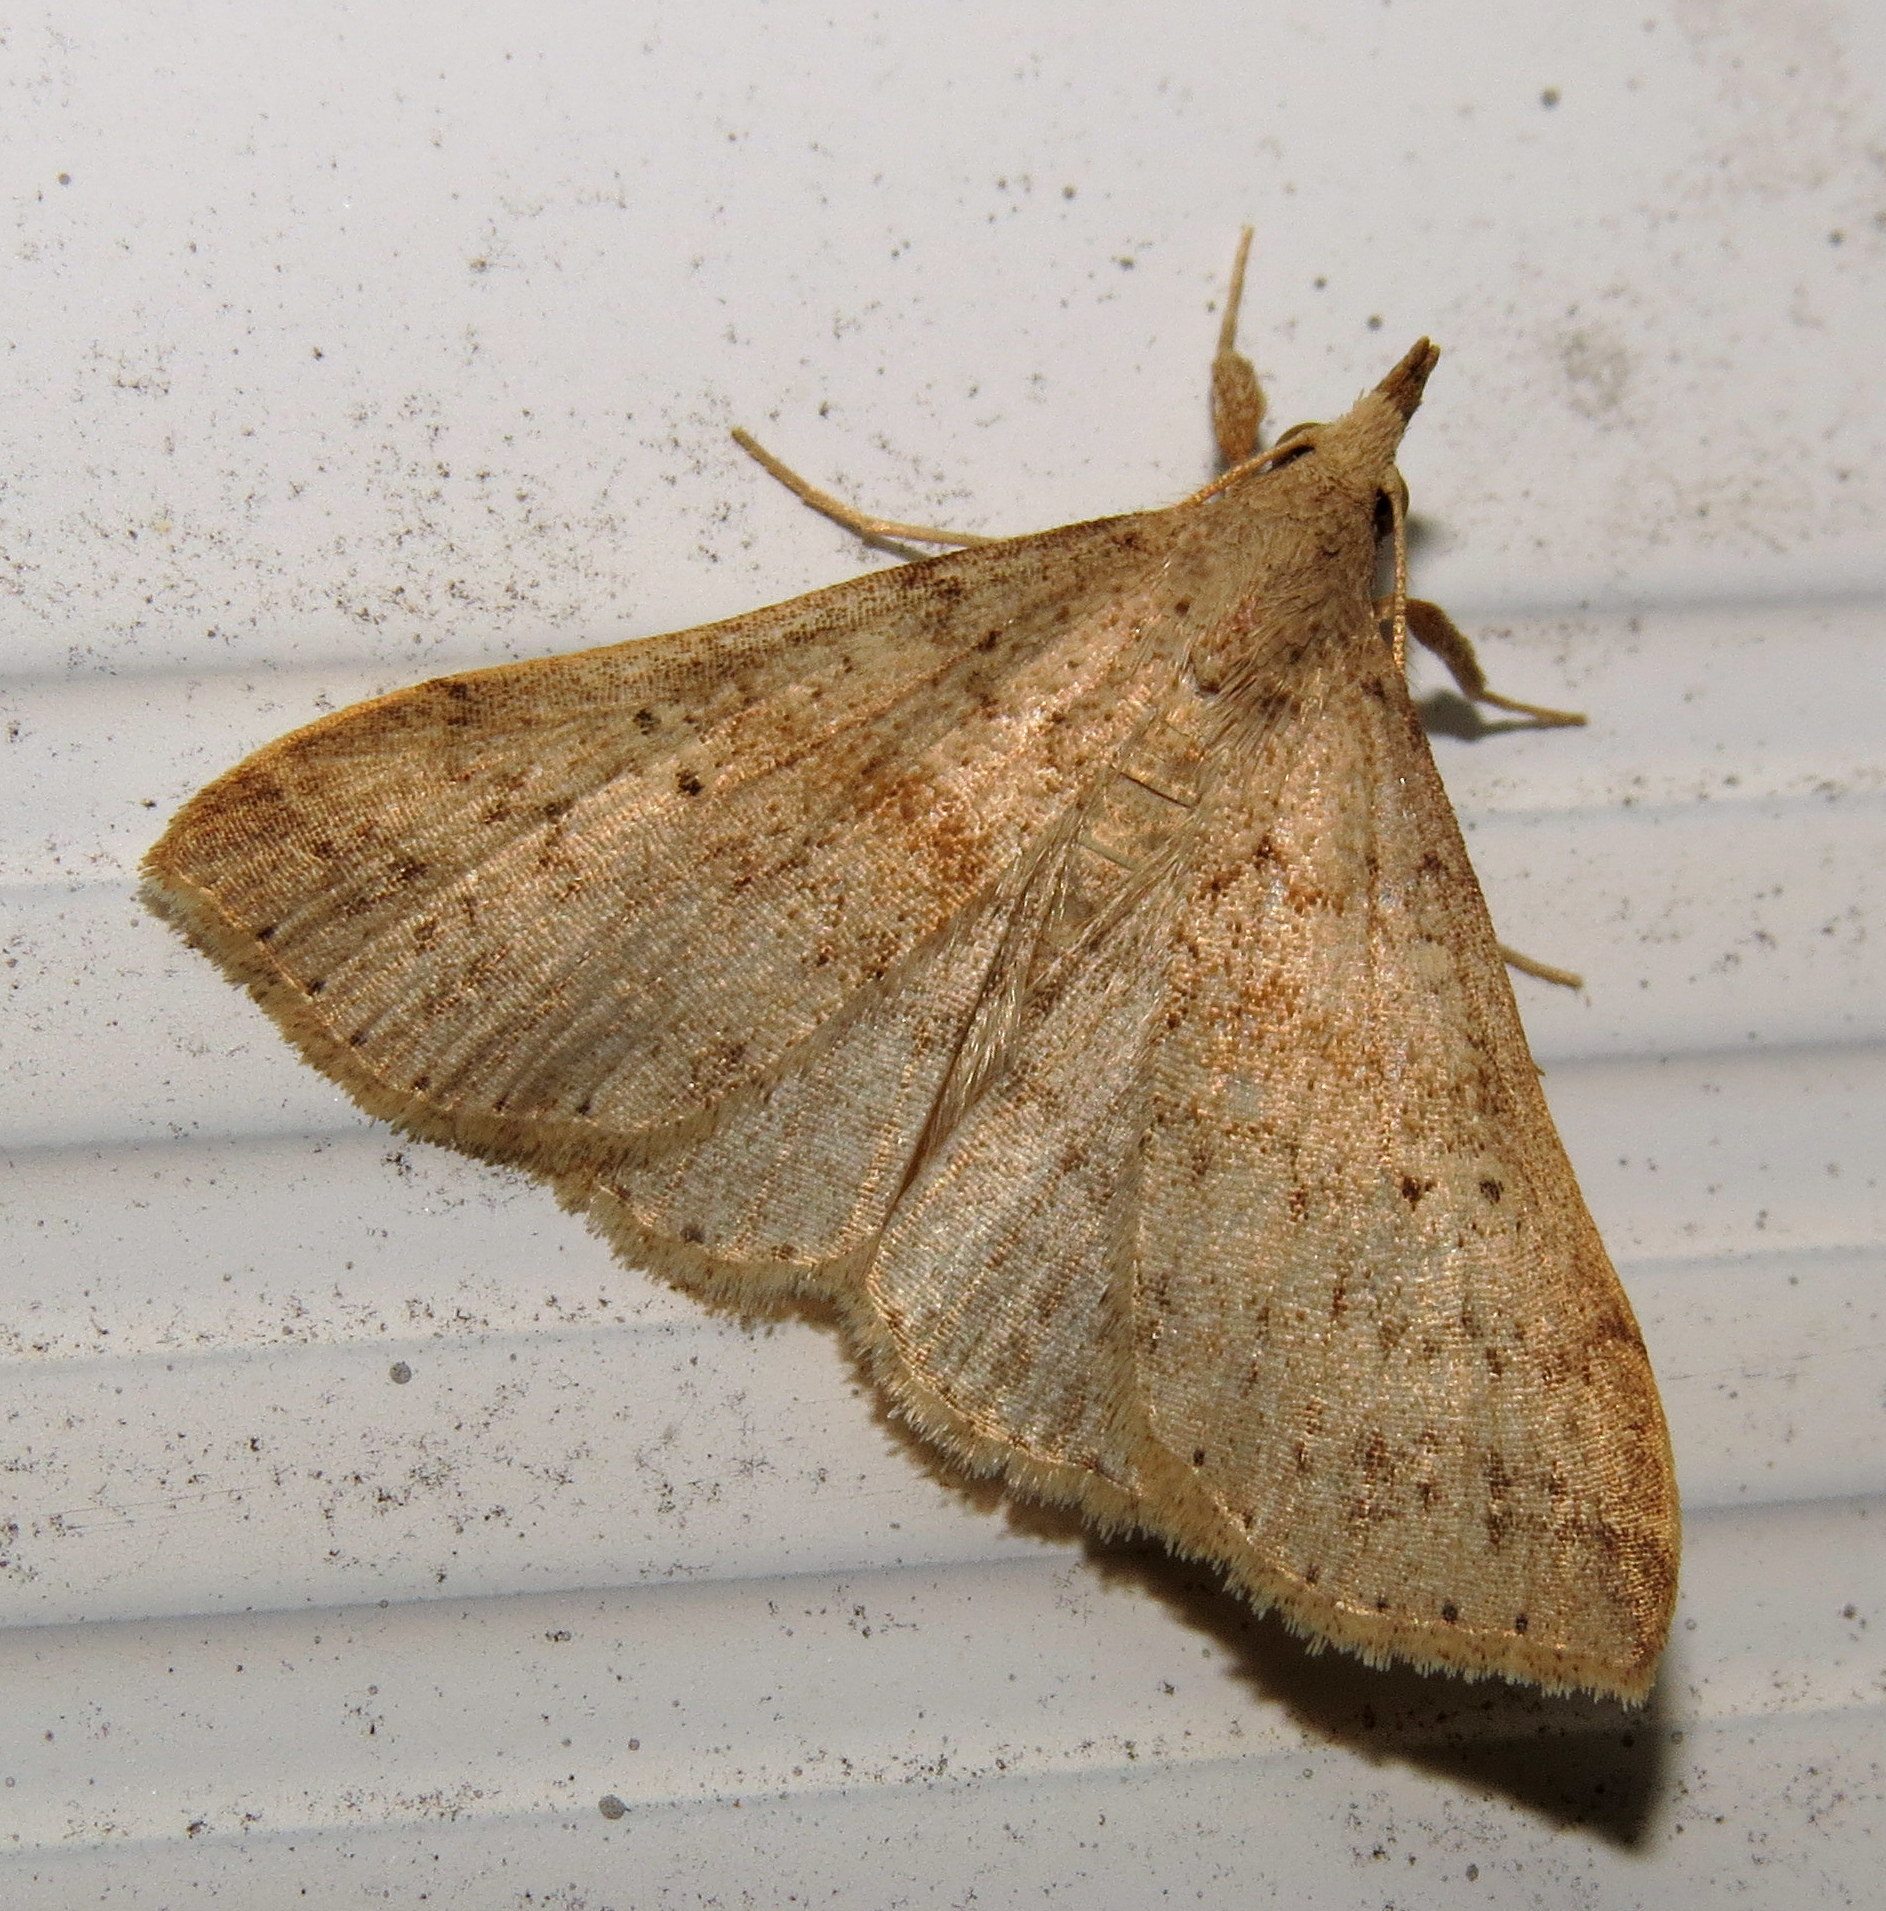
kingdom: Animalia
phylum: Arthropoda
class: Insecta
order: Lepidoptera
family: Erebidae
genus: Renia
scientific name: Renia salusalis
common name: Dotted renia moth
